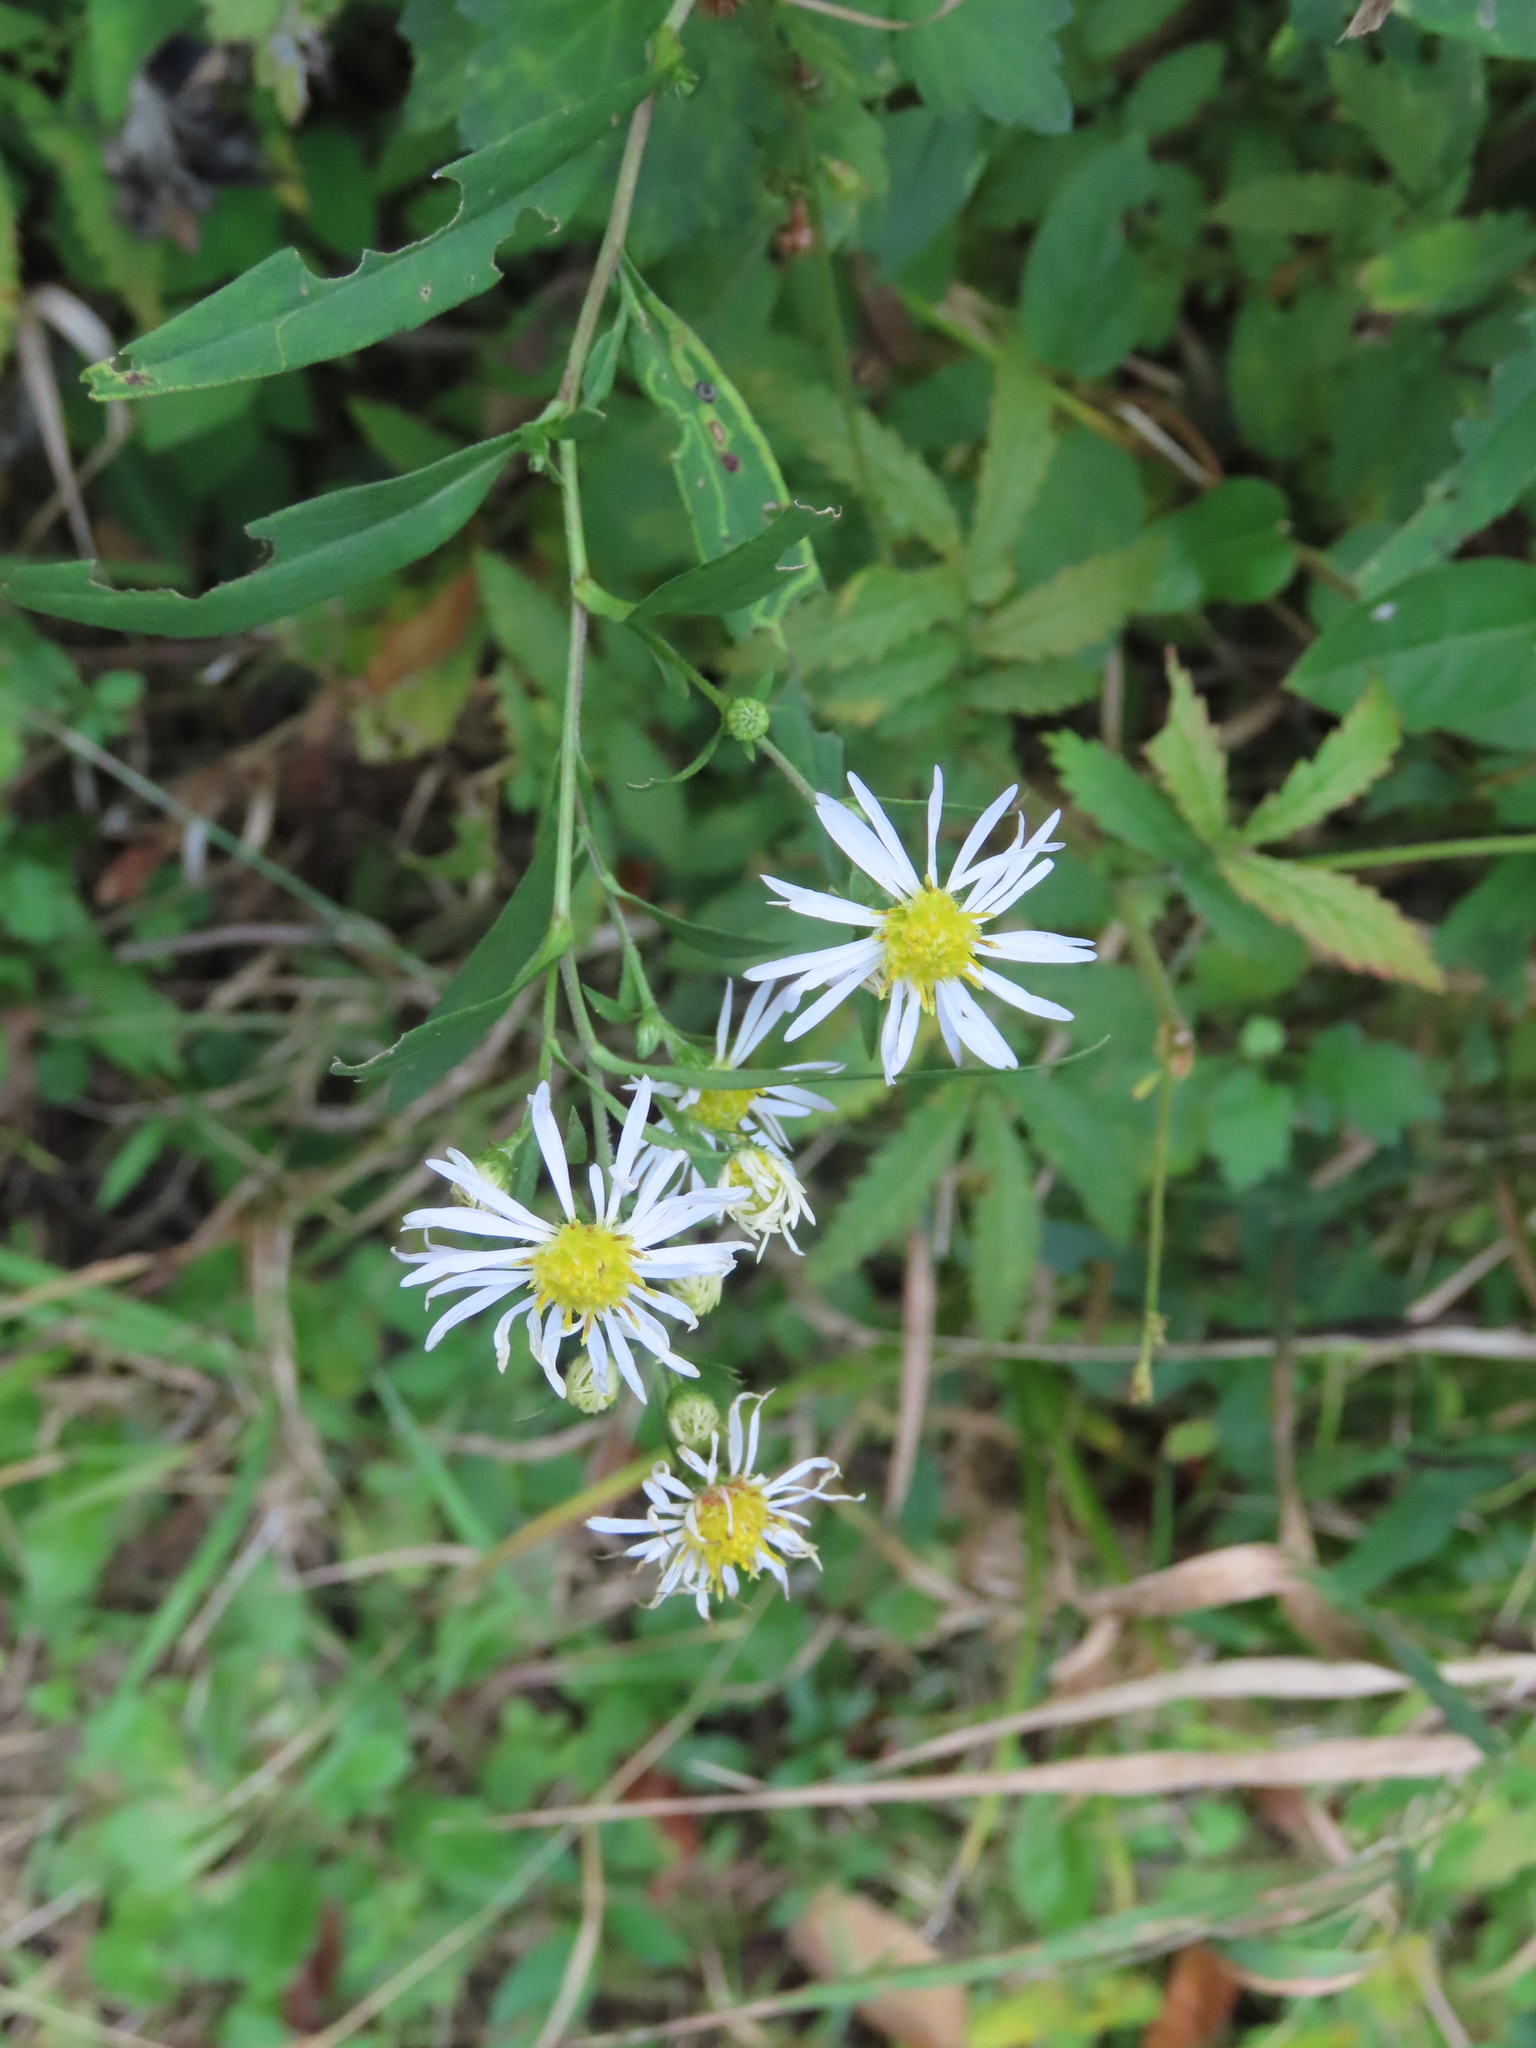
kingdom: Animalia
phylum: Arthropoda
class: Insecta
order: Diptera
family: Agromyzidae
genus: Ophiomyia
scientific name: Ophiomyia parda
